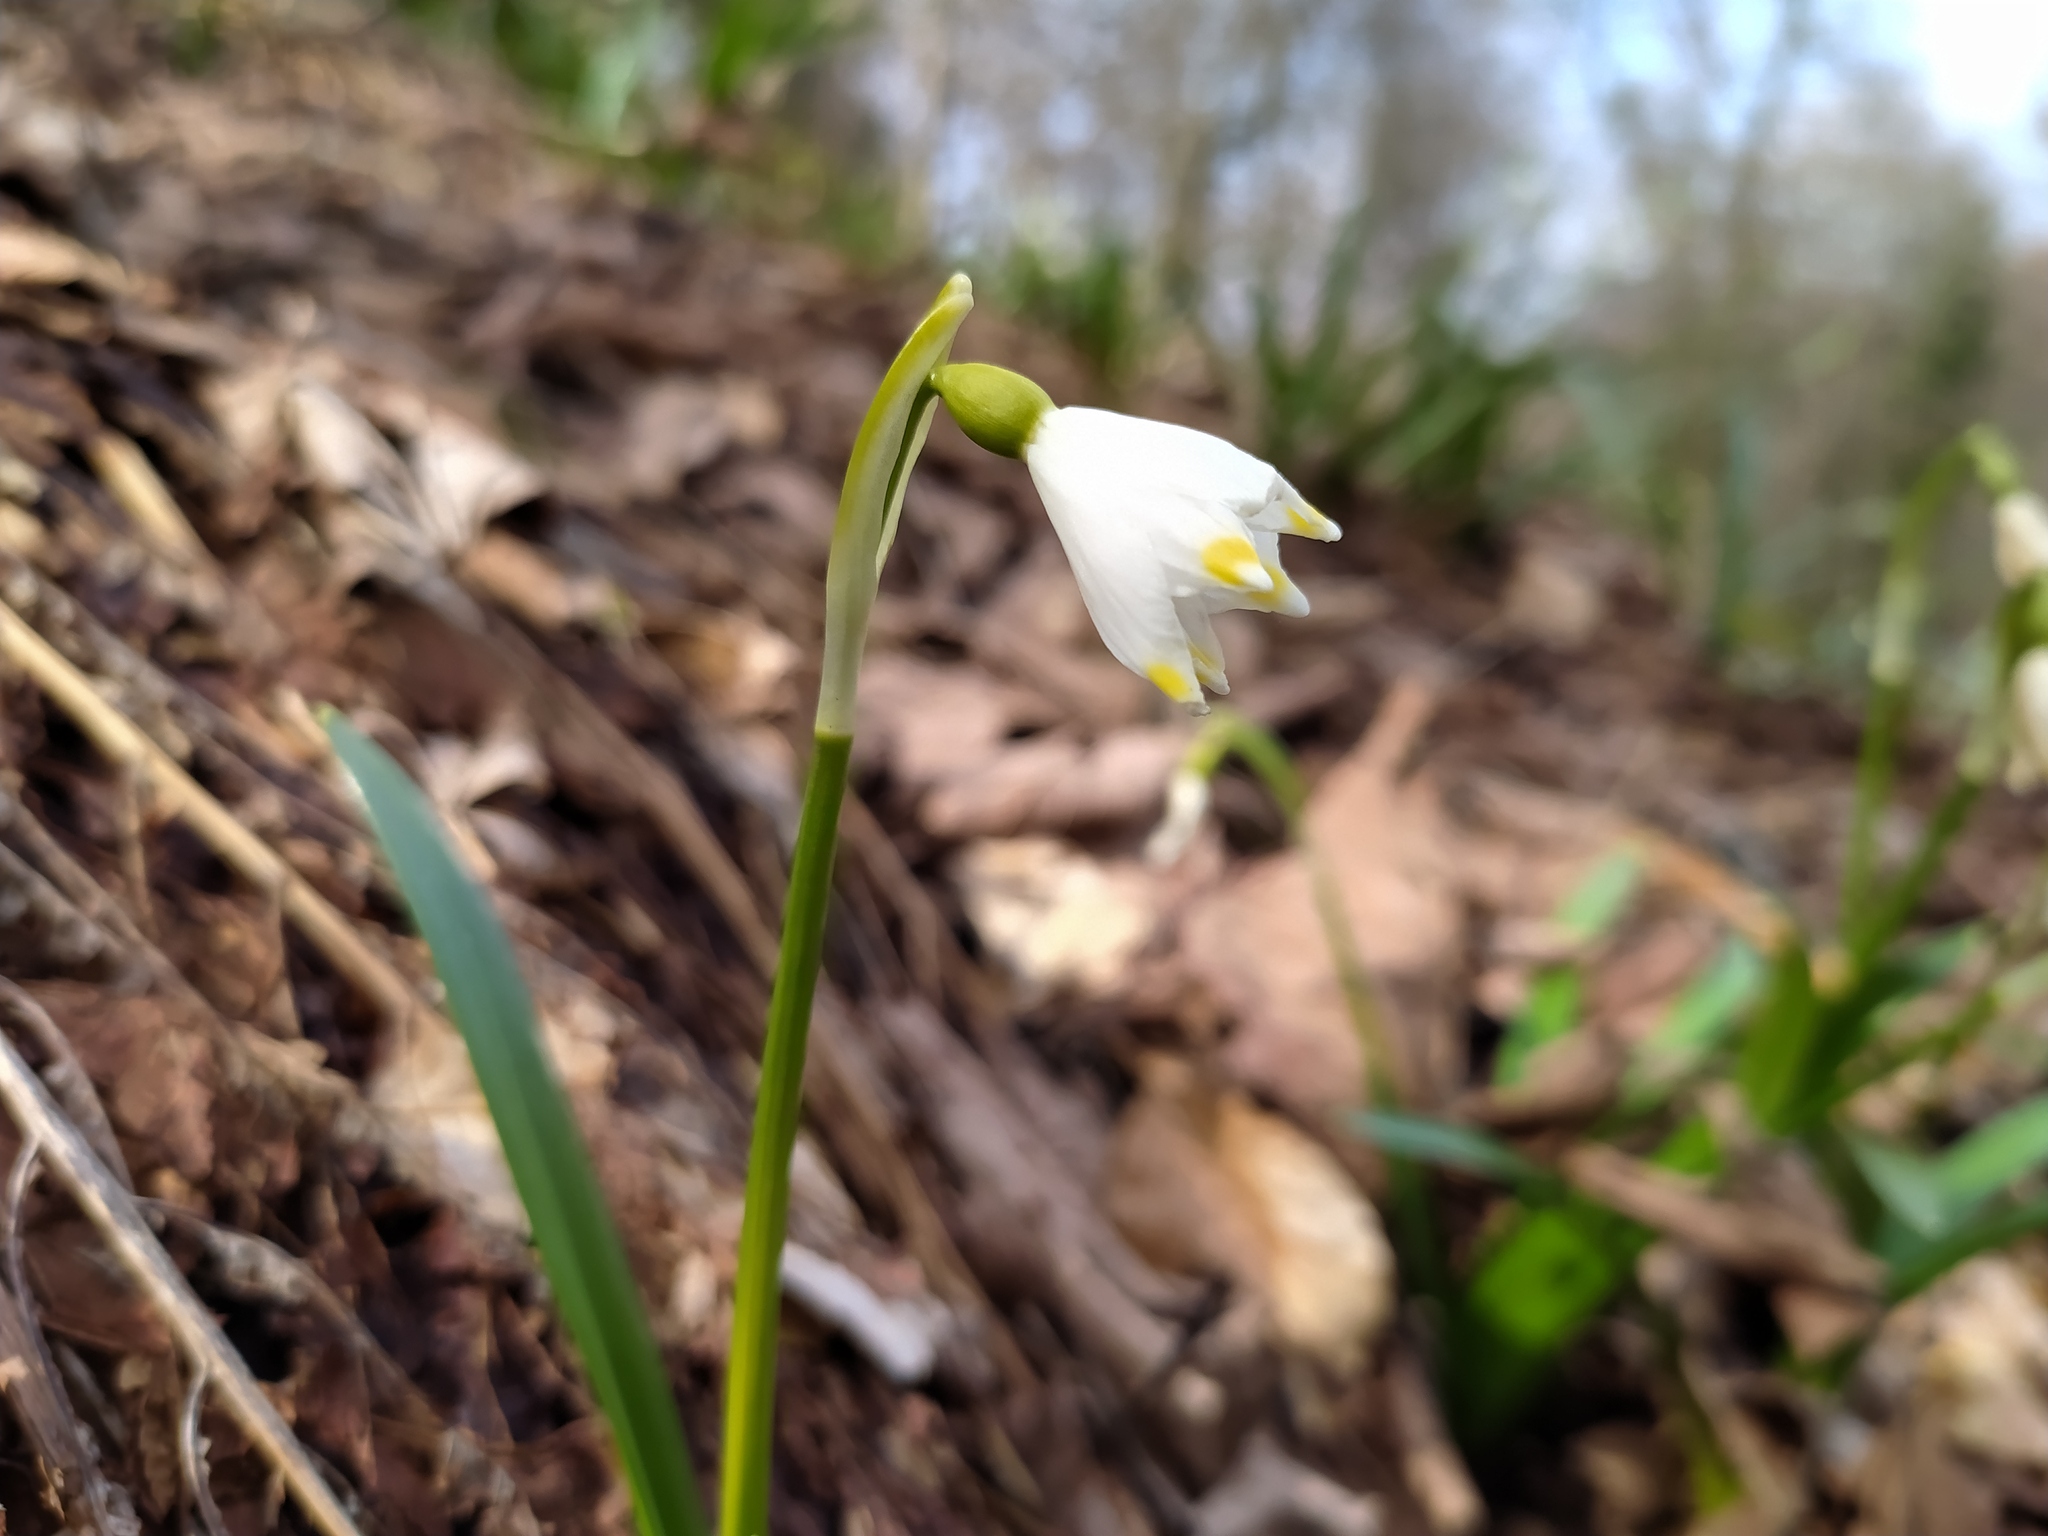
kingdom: Plantae
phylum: Tracheophyta
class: Liliopsida
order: Asparagales
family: Amaryllidaceae
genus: Leucojum
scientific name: Leucojum vernum
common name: Spring snowflake
